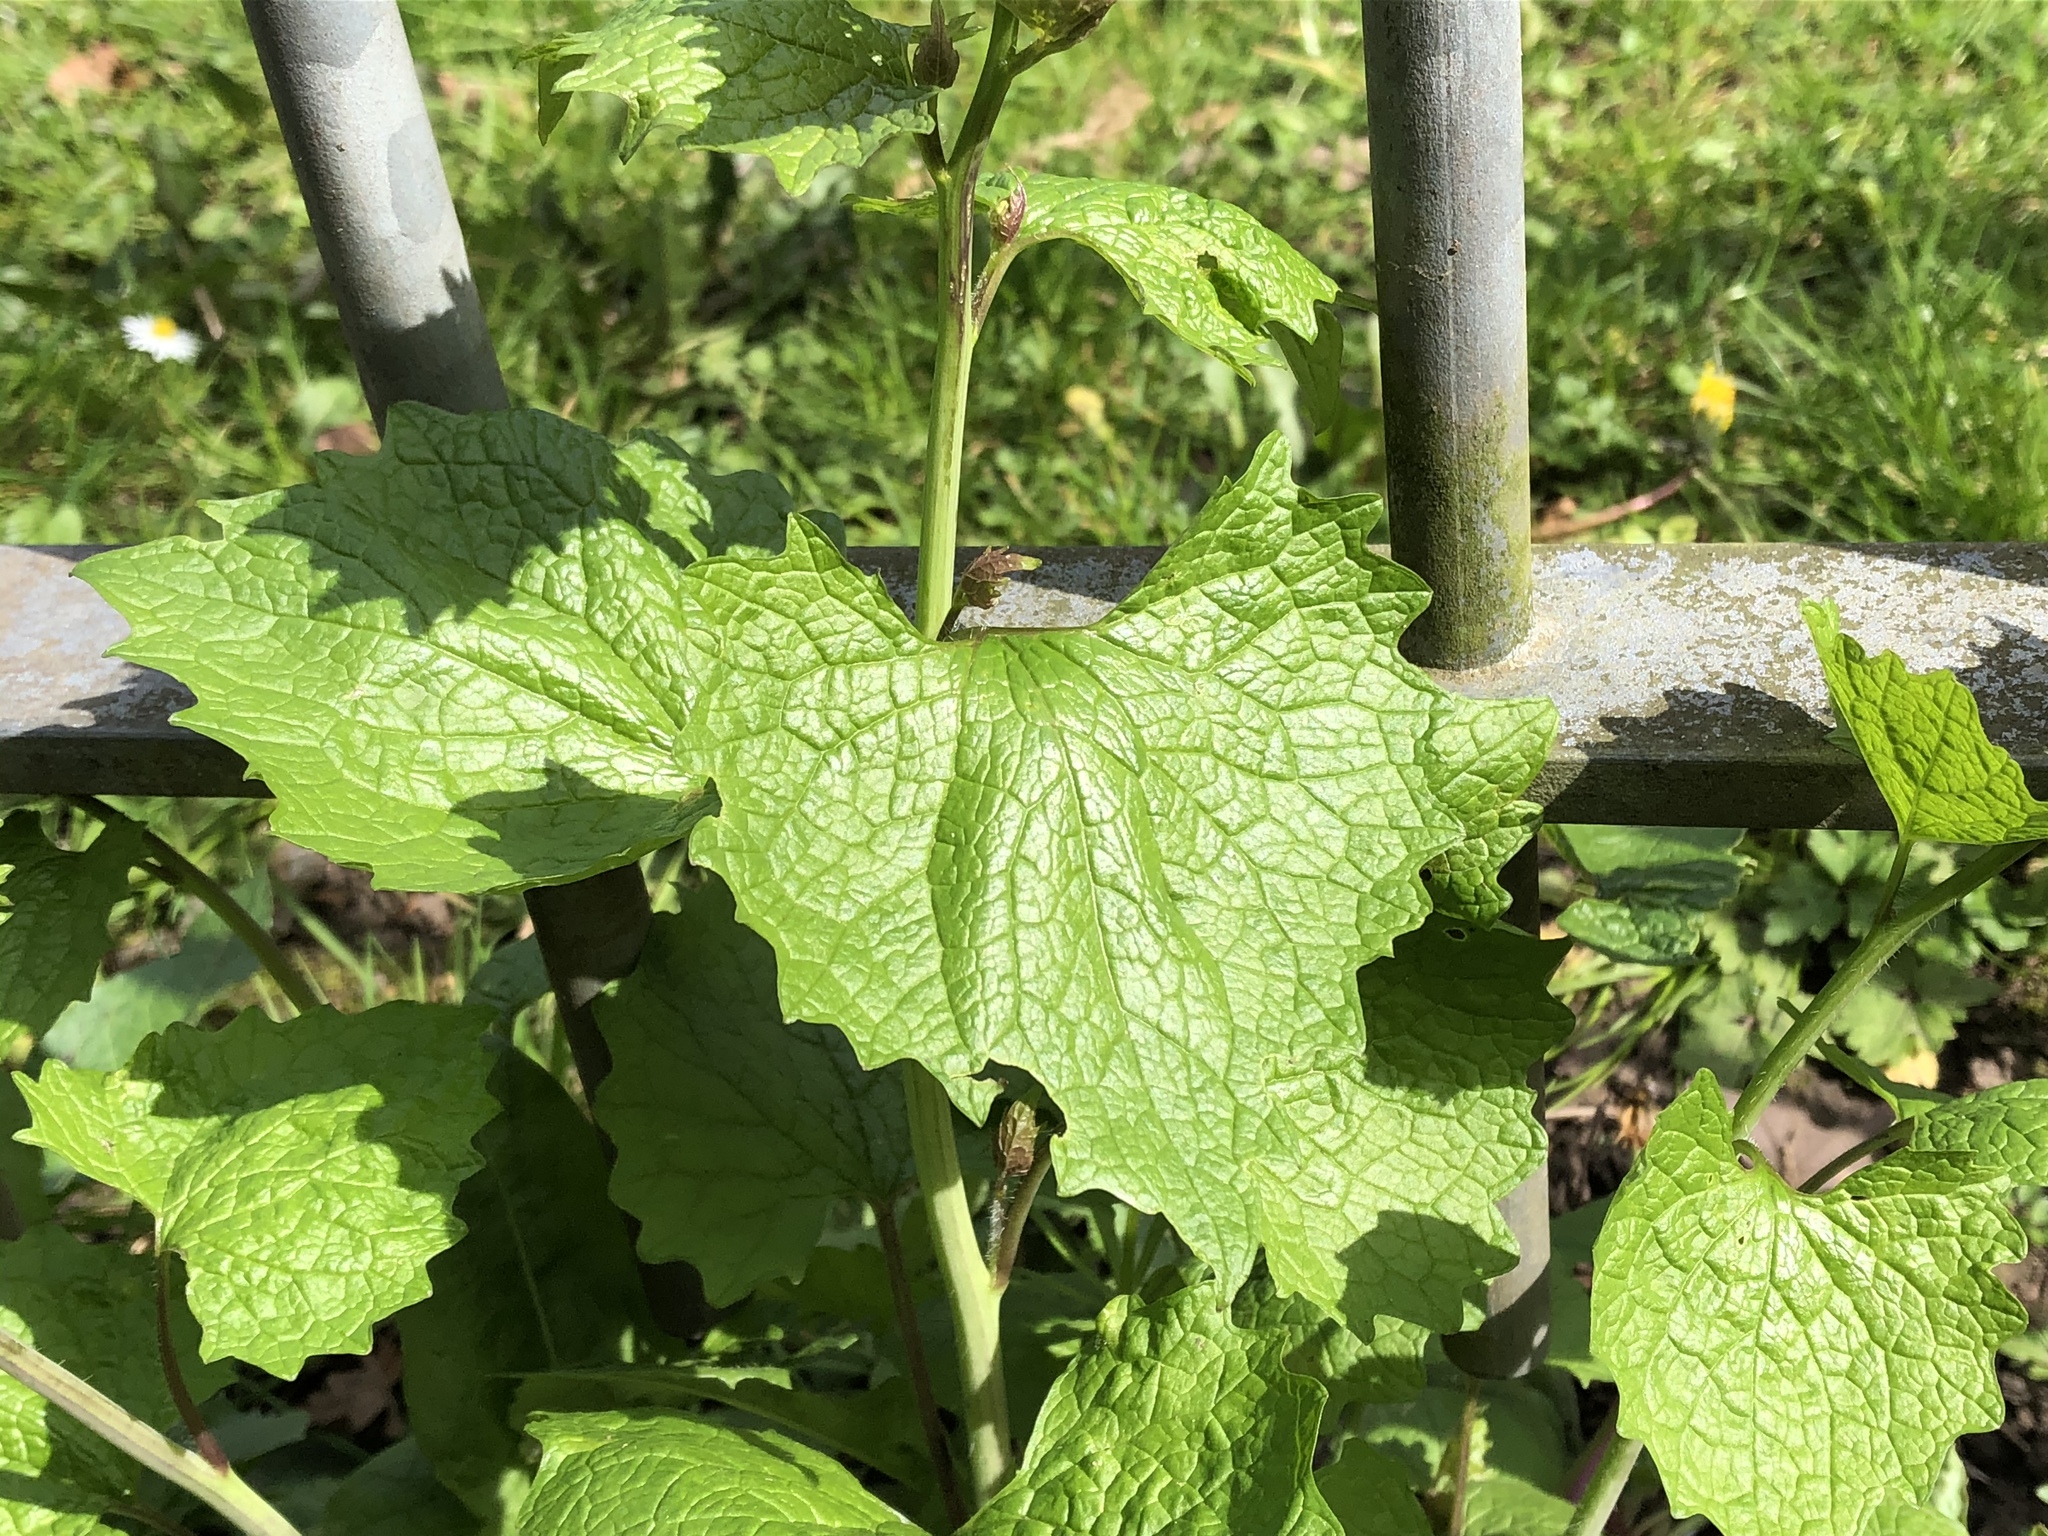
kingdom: Plantae
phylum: Tracheophyta
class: Magnoliopsida
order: Brassicales
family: Brassicaceae
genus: Alliaria
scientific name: Alliaria petiolata
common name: Garlic mustard
